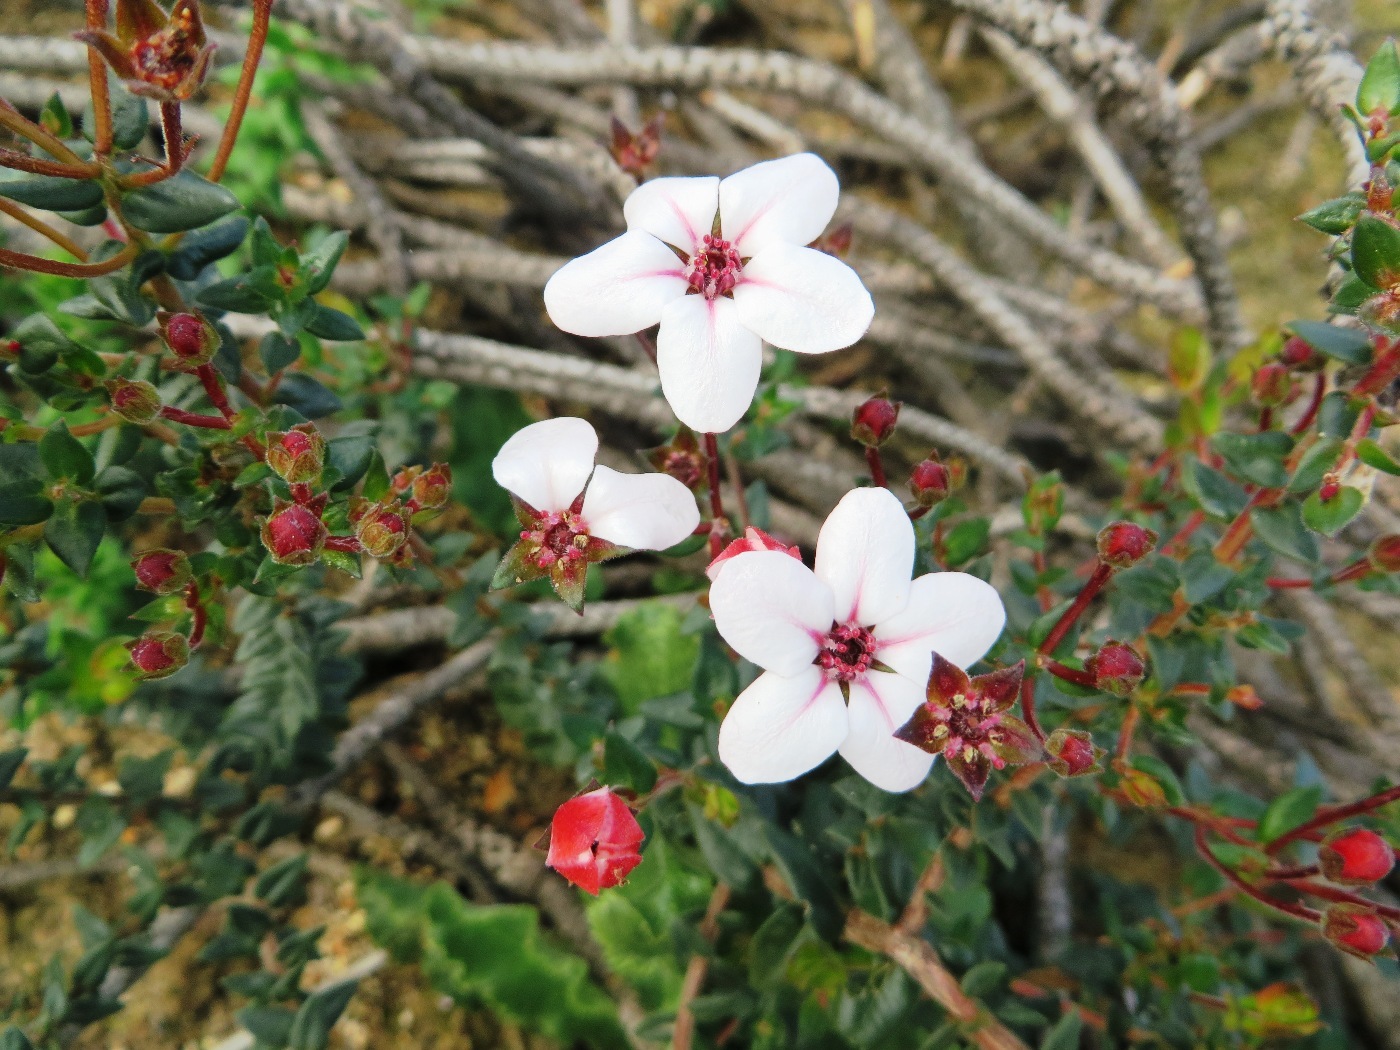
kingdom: Plantae
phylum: Tracheophyta
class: Magnoliopsida
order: Sapindales
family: Rutaceae
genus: Adenandra
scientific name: Adenandra marginata
